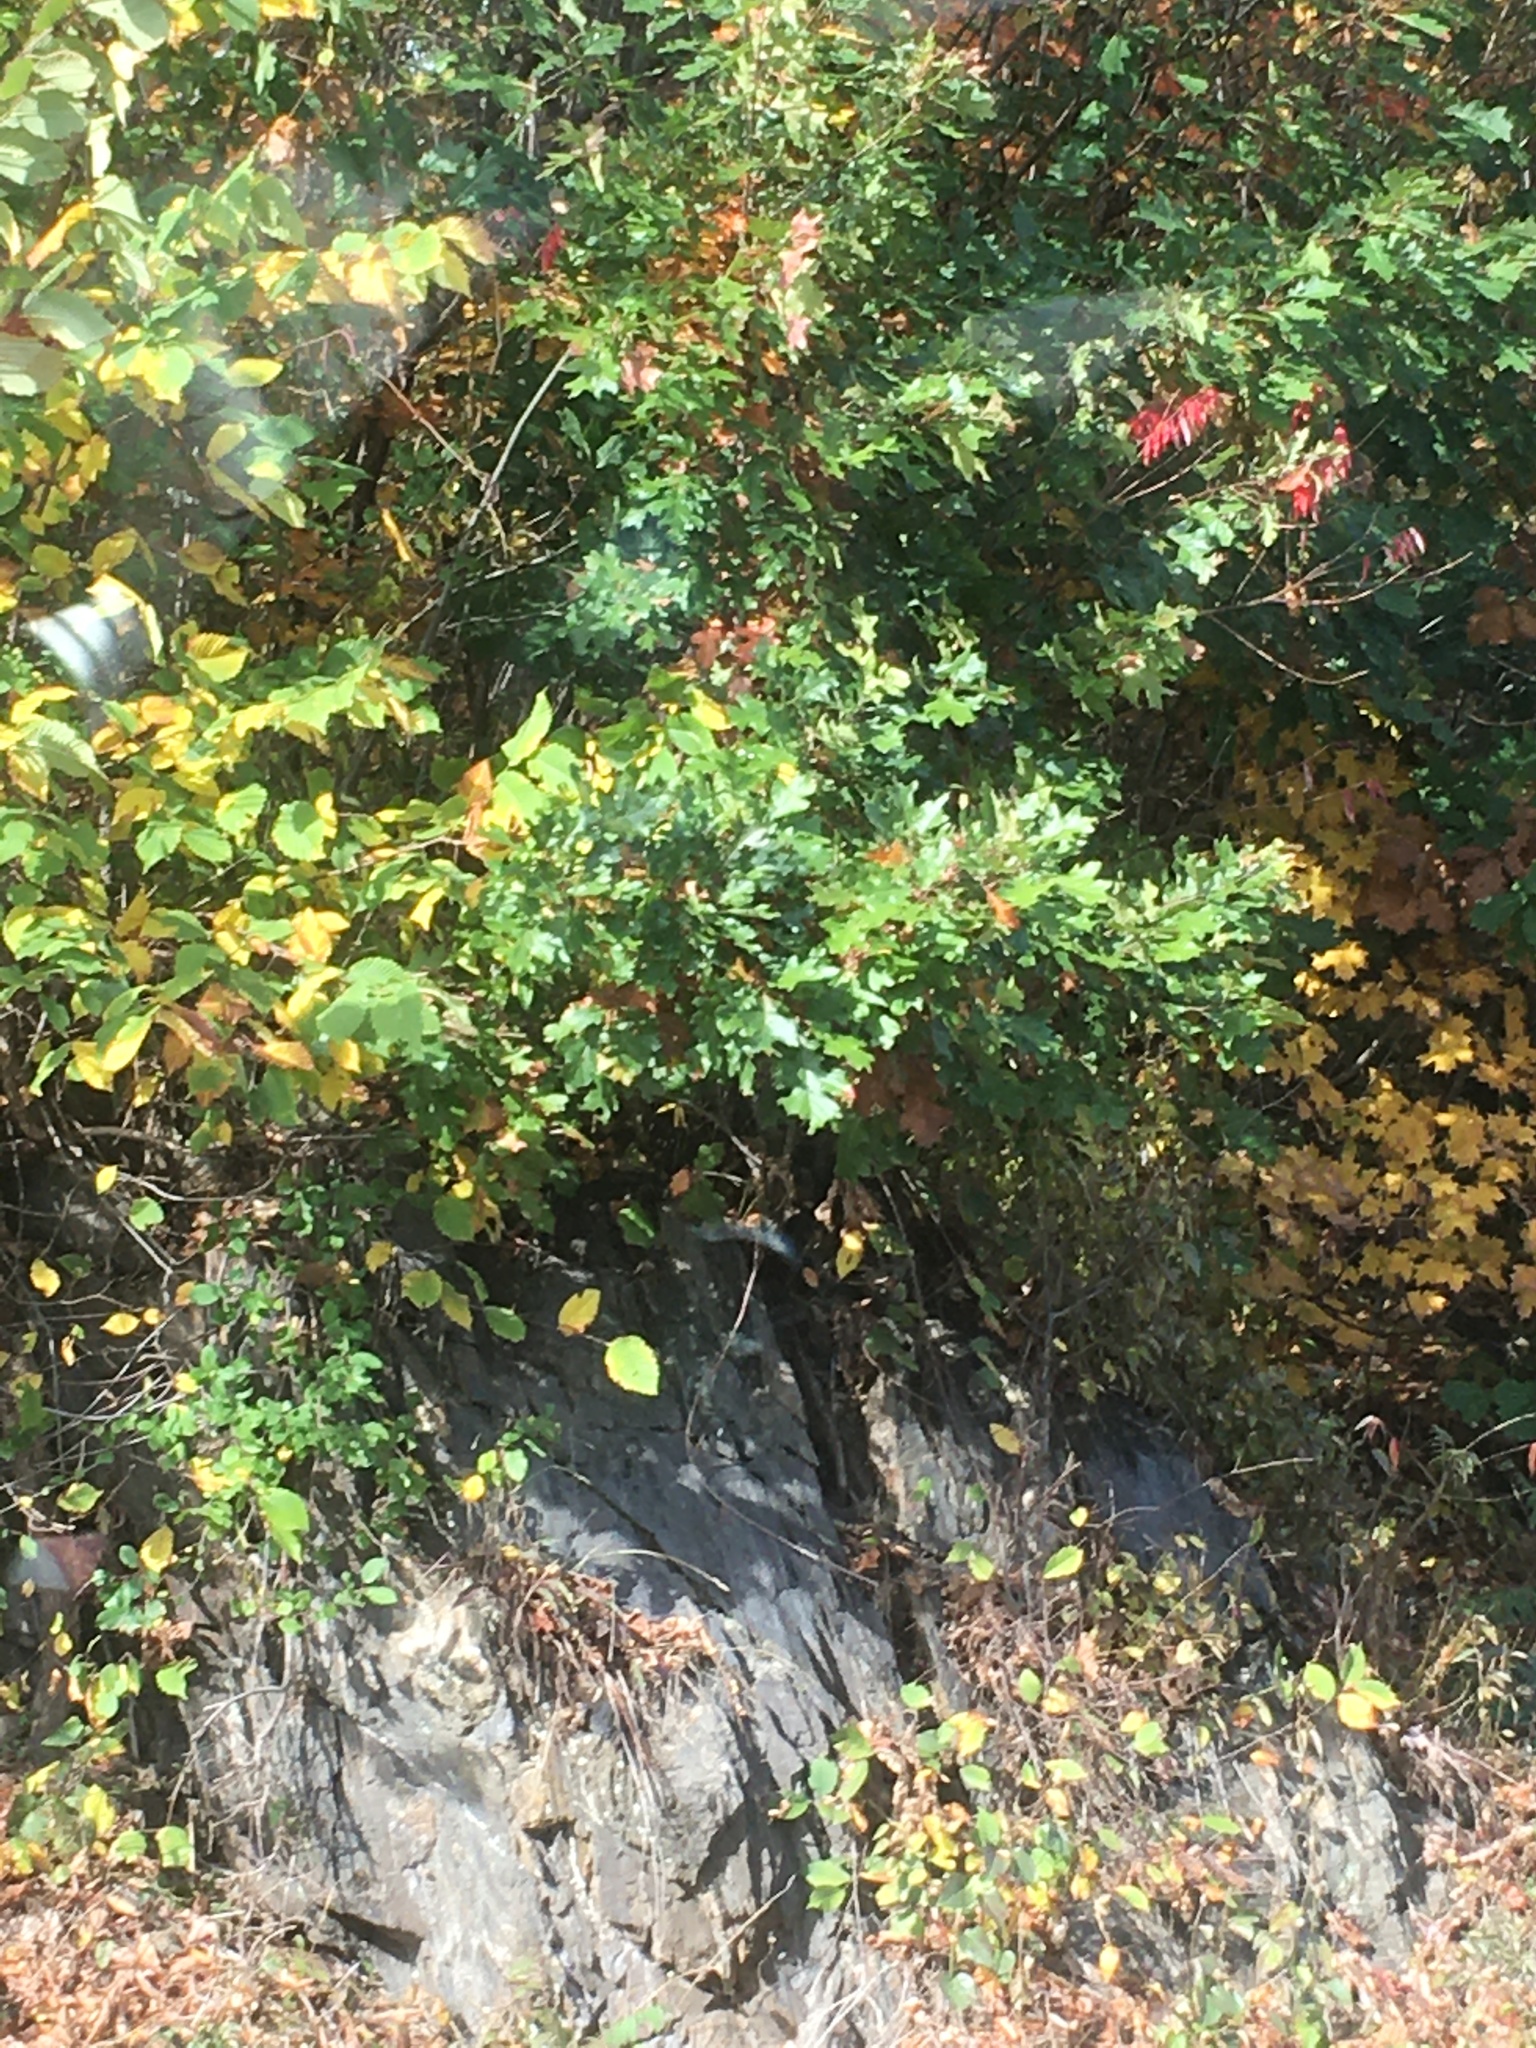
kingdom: Plantae
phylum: Tracheophyta
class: Magnoliopsida
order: Fagales
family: Fagaceae
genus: Quercus
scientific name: Quercus rubra
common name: Red oak
